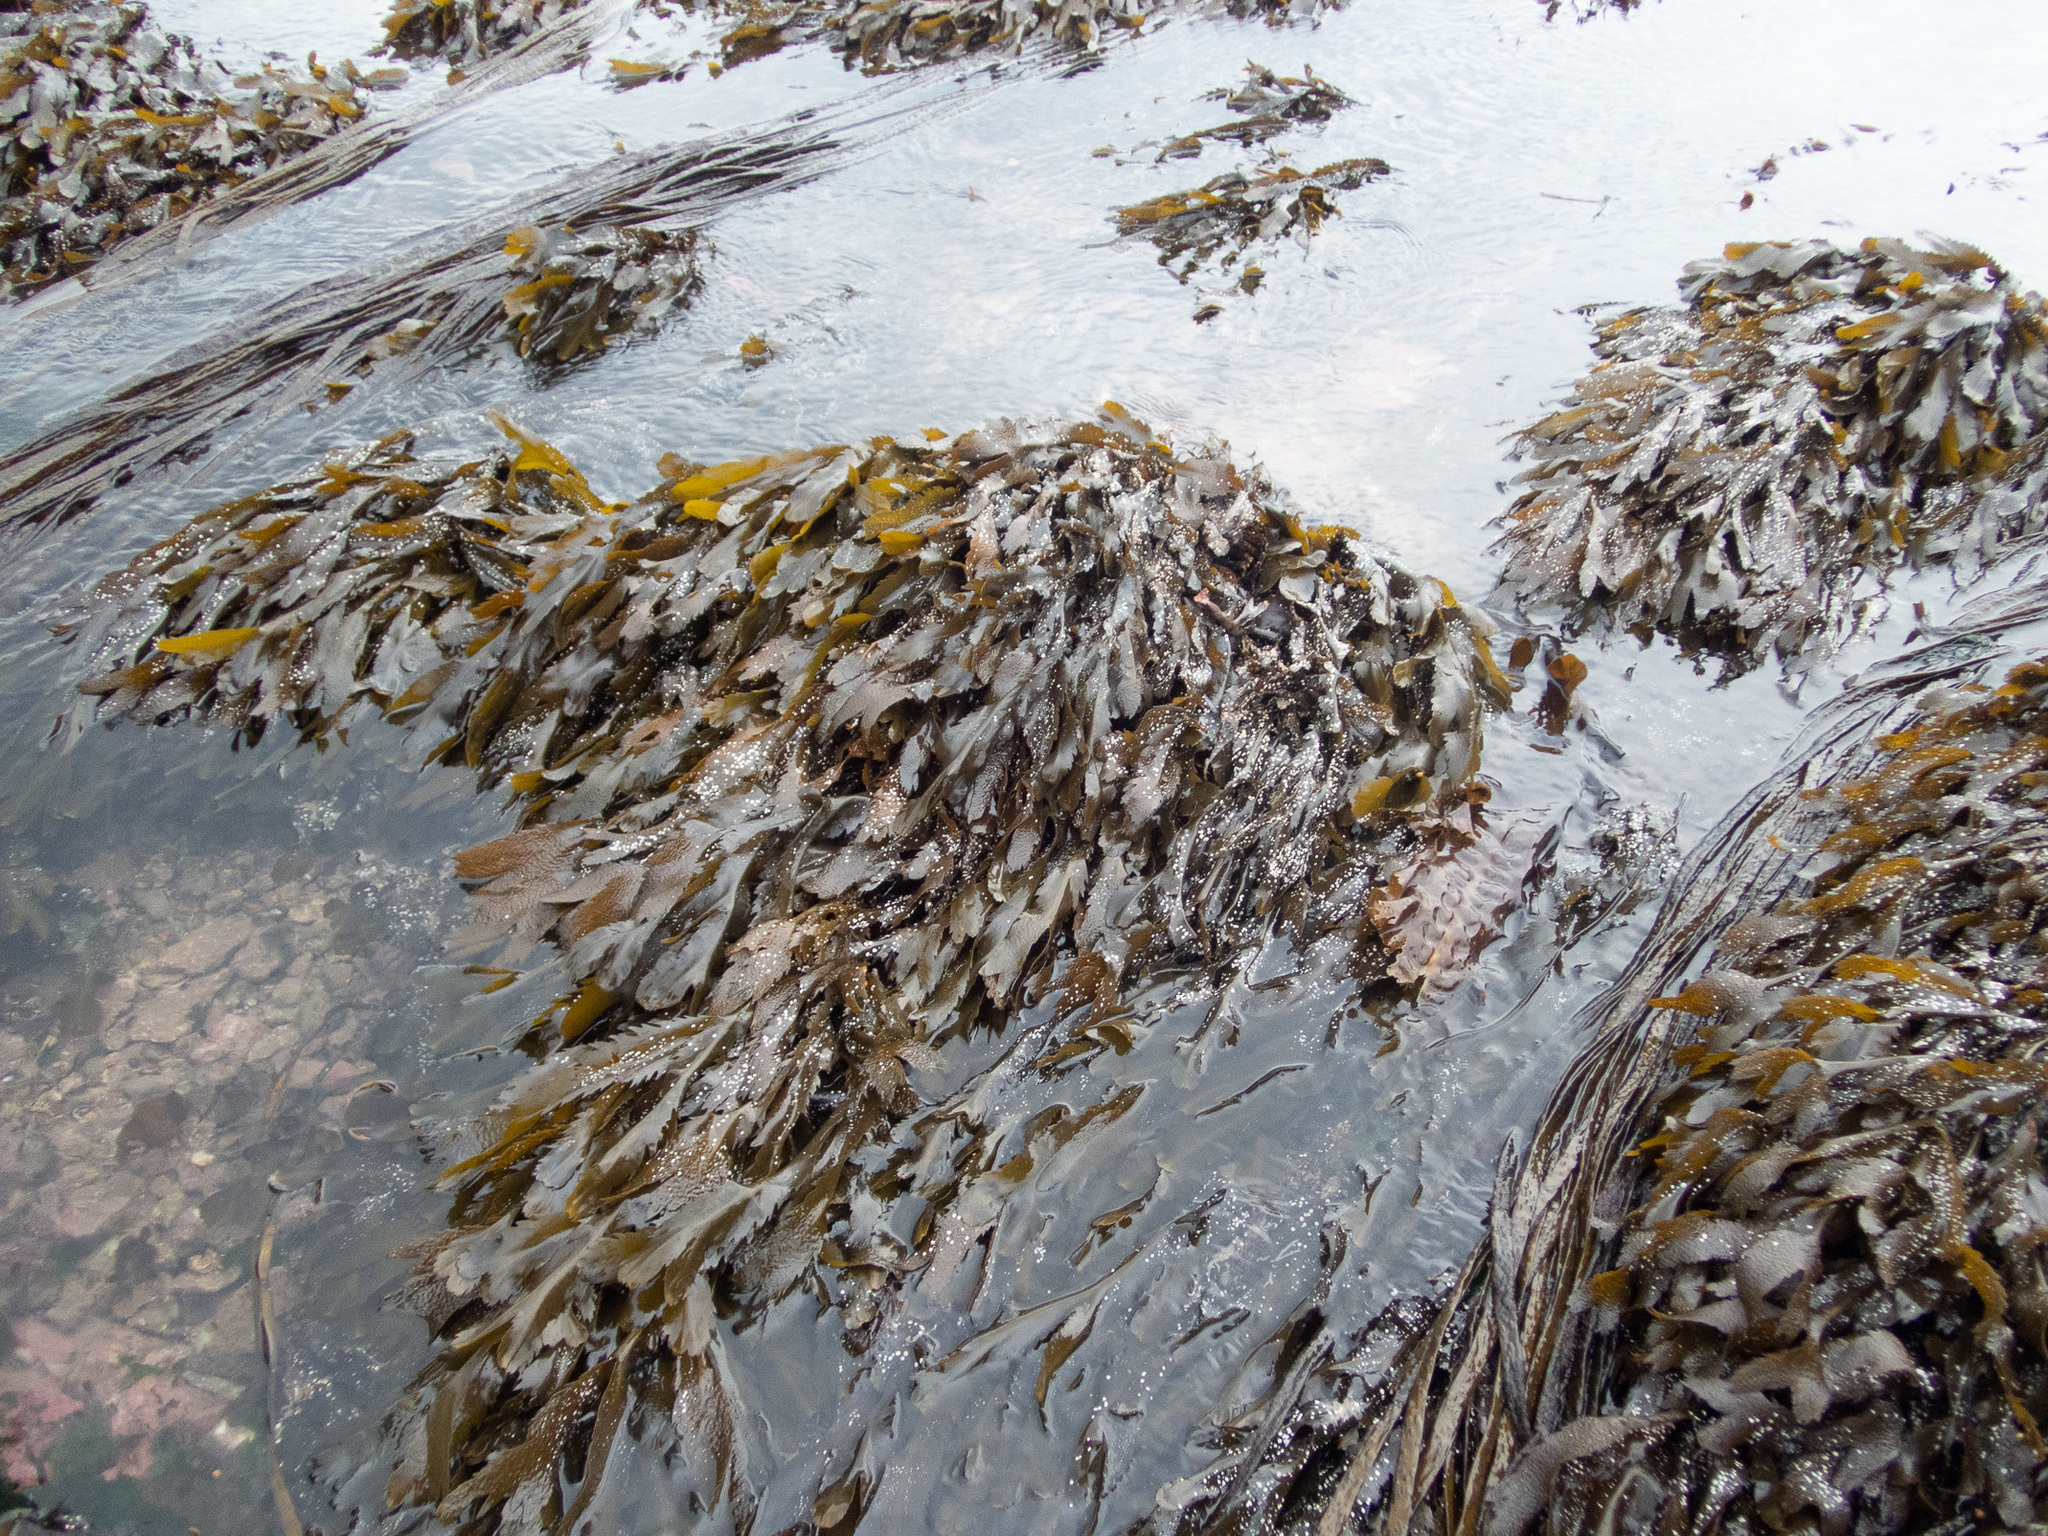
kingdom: Chromista
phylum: Ochrophyta
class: Phaeophyceae
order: Fucales
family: Fucaceae
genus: Fucus
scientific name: Fucus serratus
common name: Toothed wrack
